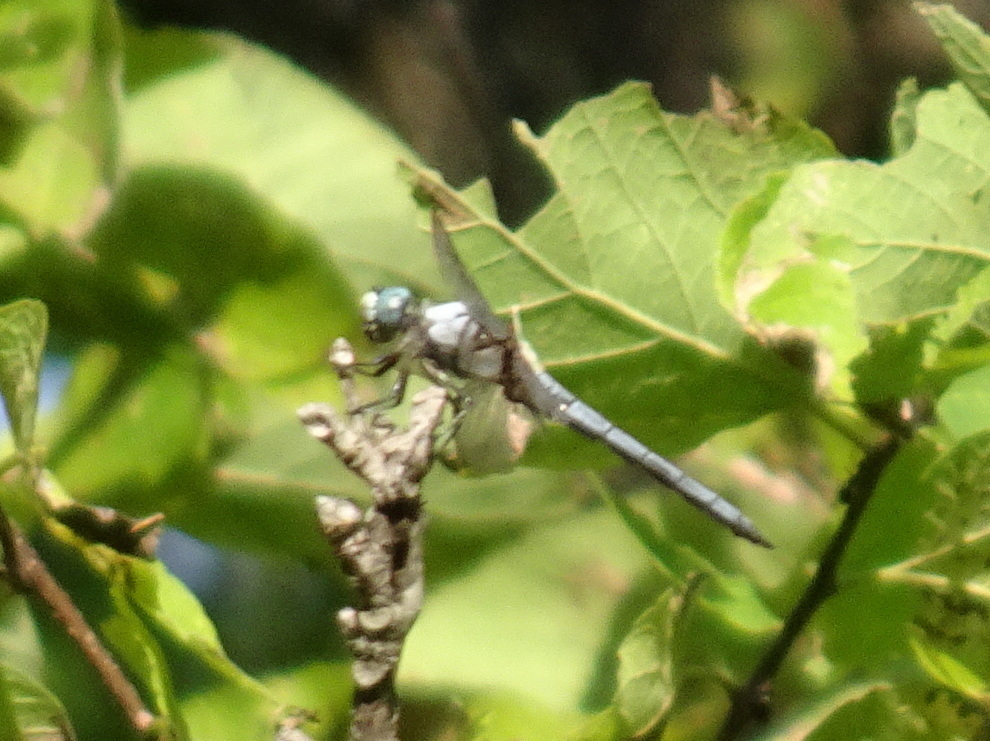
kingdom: Animalia
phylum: Arthropoda
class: Insecta
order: Odonata
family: Libellulidae
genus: Libellula
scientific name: Libellula vibrans
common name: Great blue skimmer
